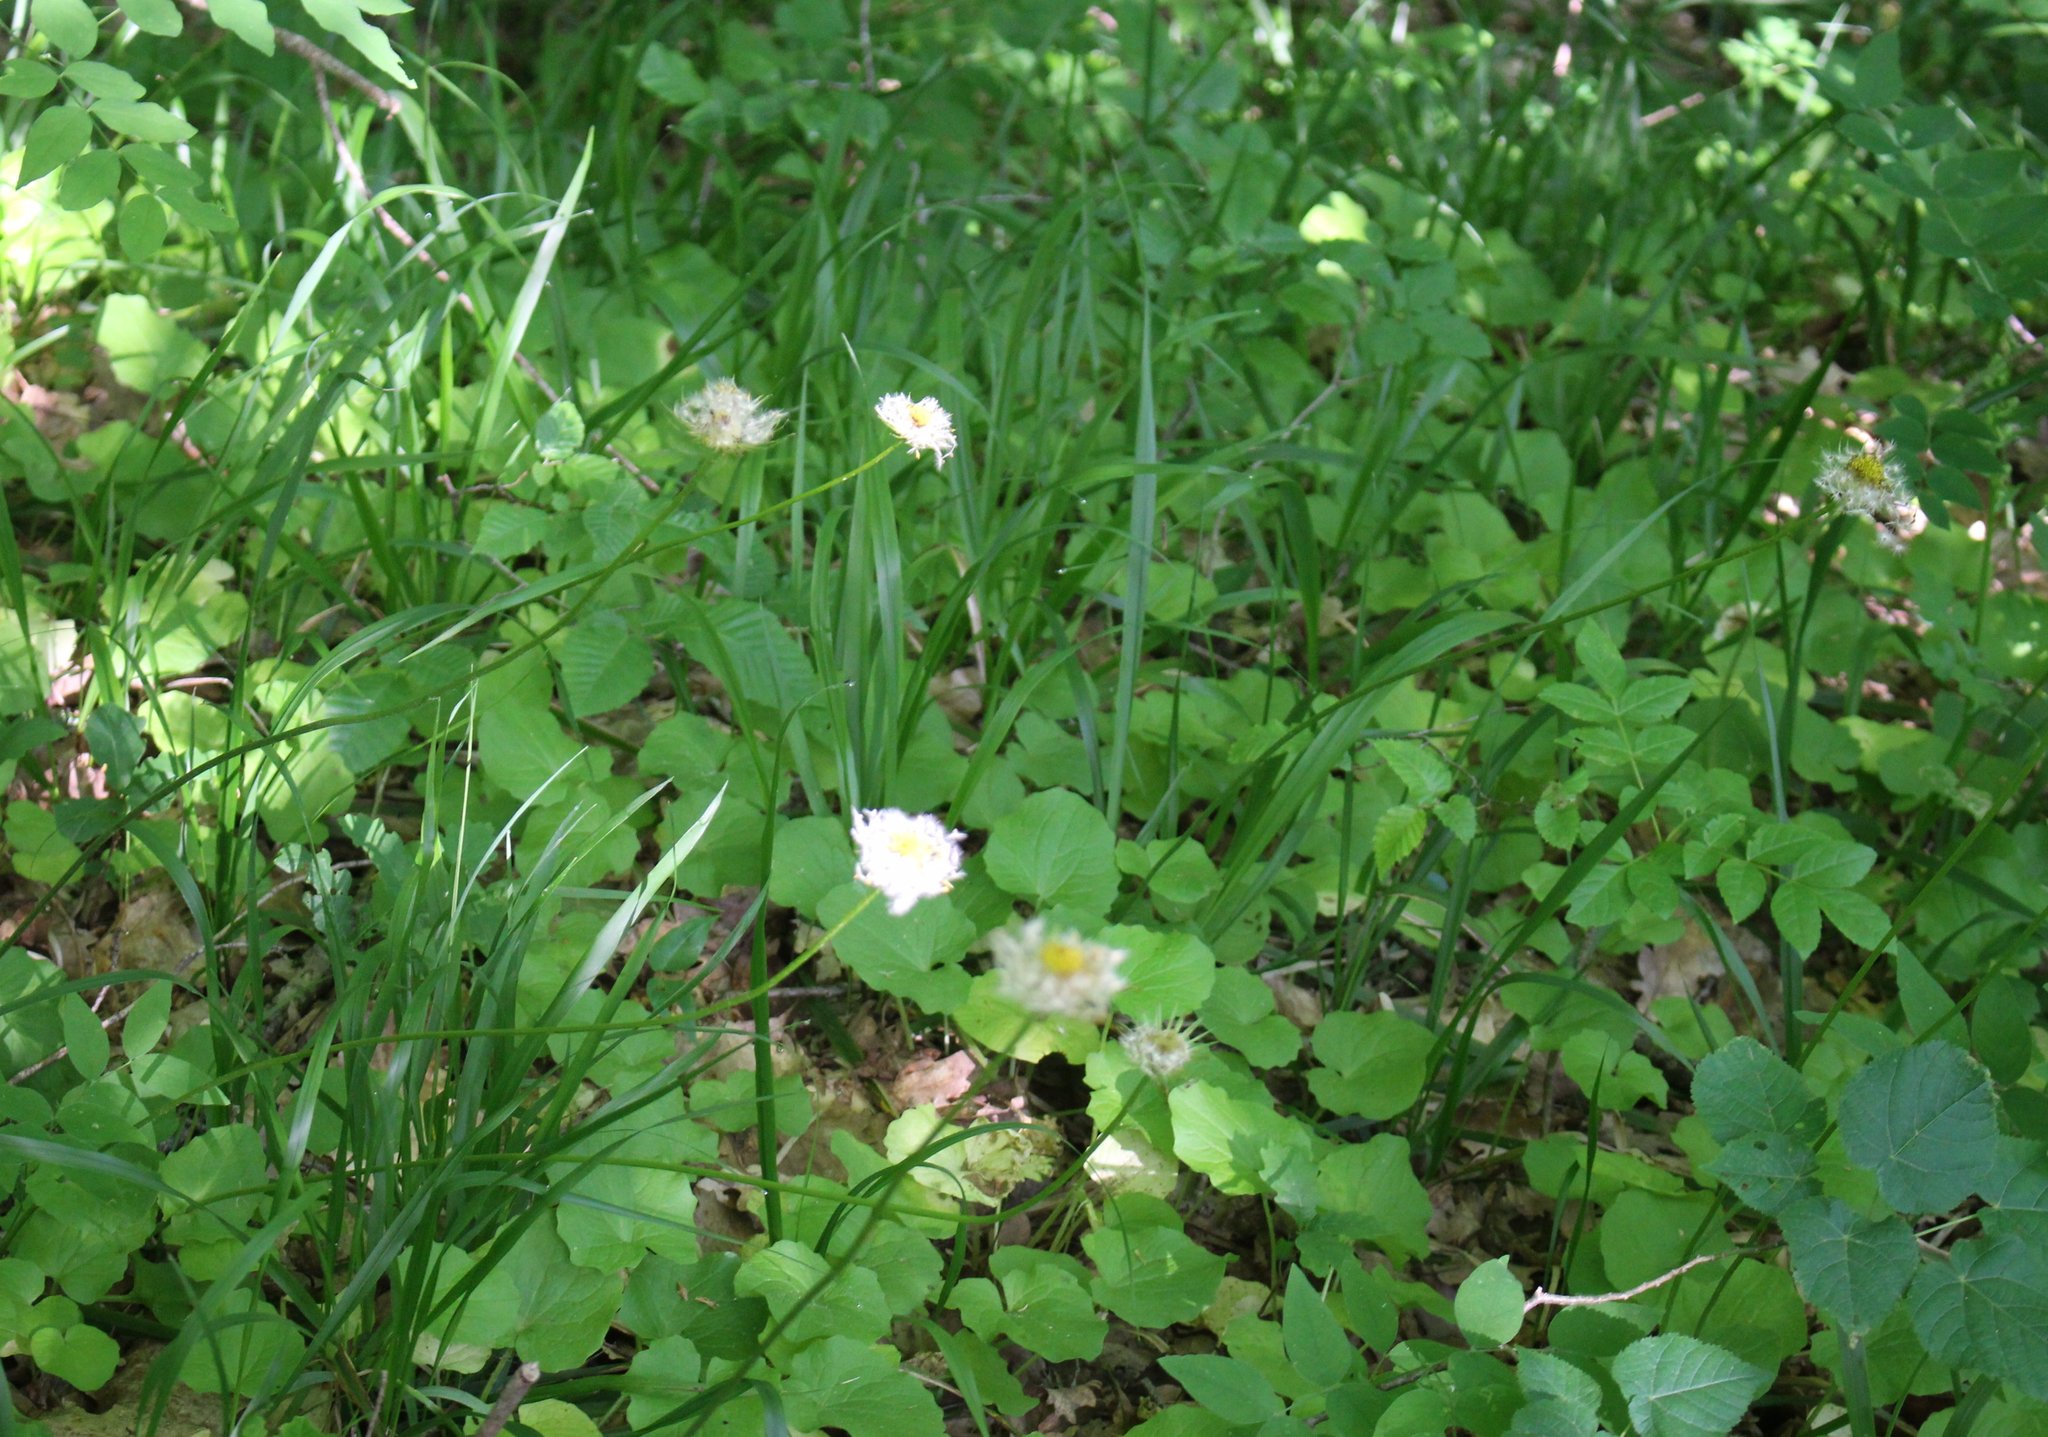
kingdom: Plantae
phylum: Tracheophyta
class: Magnoliopsida
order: Asterales
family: Asteraceae
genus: Doronicum
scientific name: Doronicum
